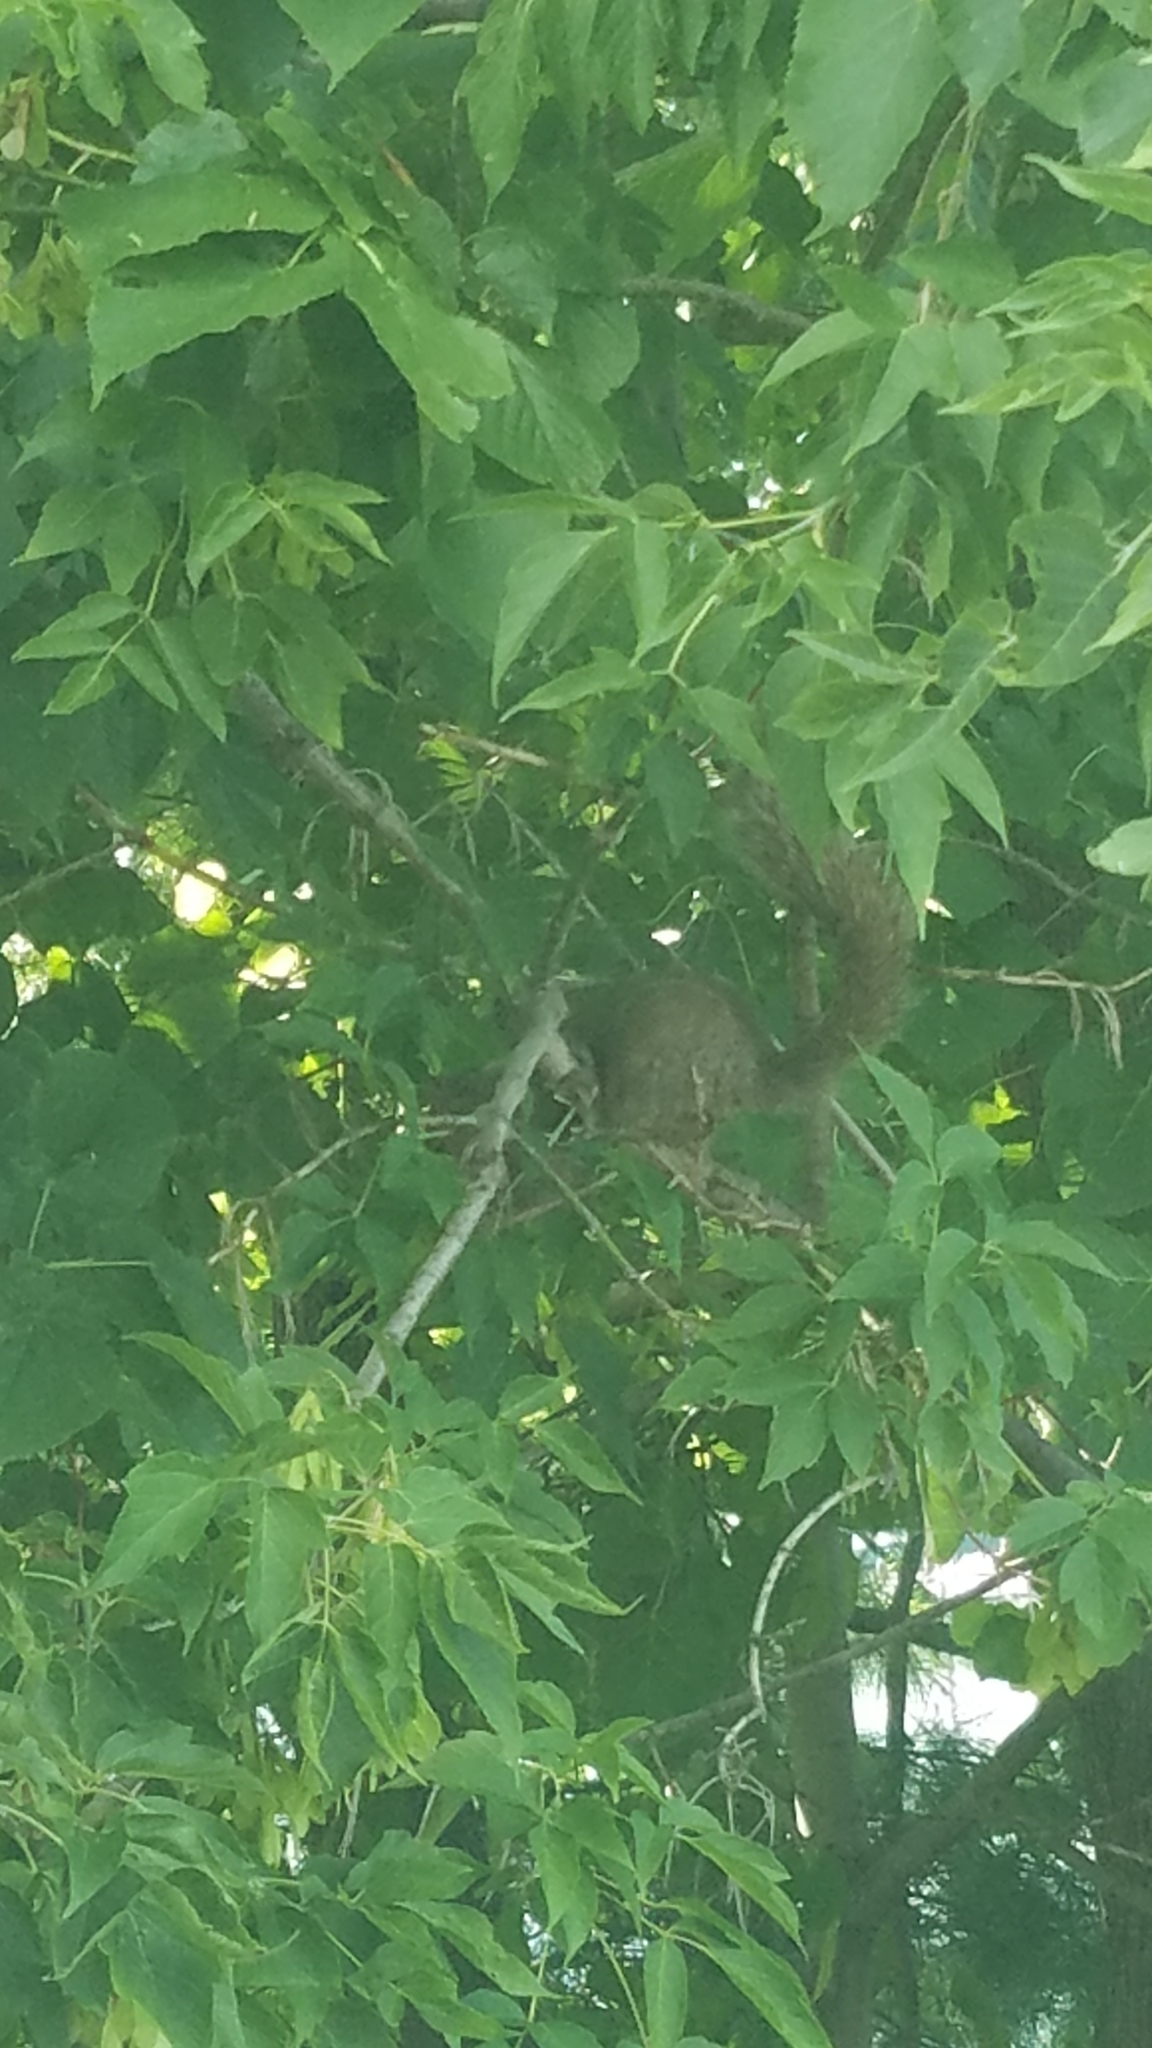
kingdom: Animalia
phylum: Chordata
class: Mammalia
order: Rodentia
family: Sciuridae
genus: Sciurus
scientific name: Sciurus carolinensis
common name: Eastern gray squirrel
